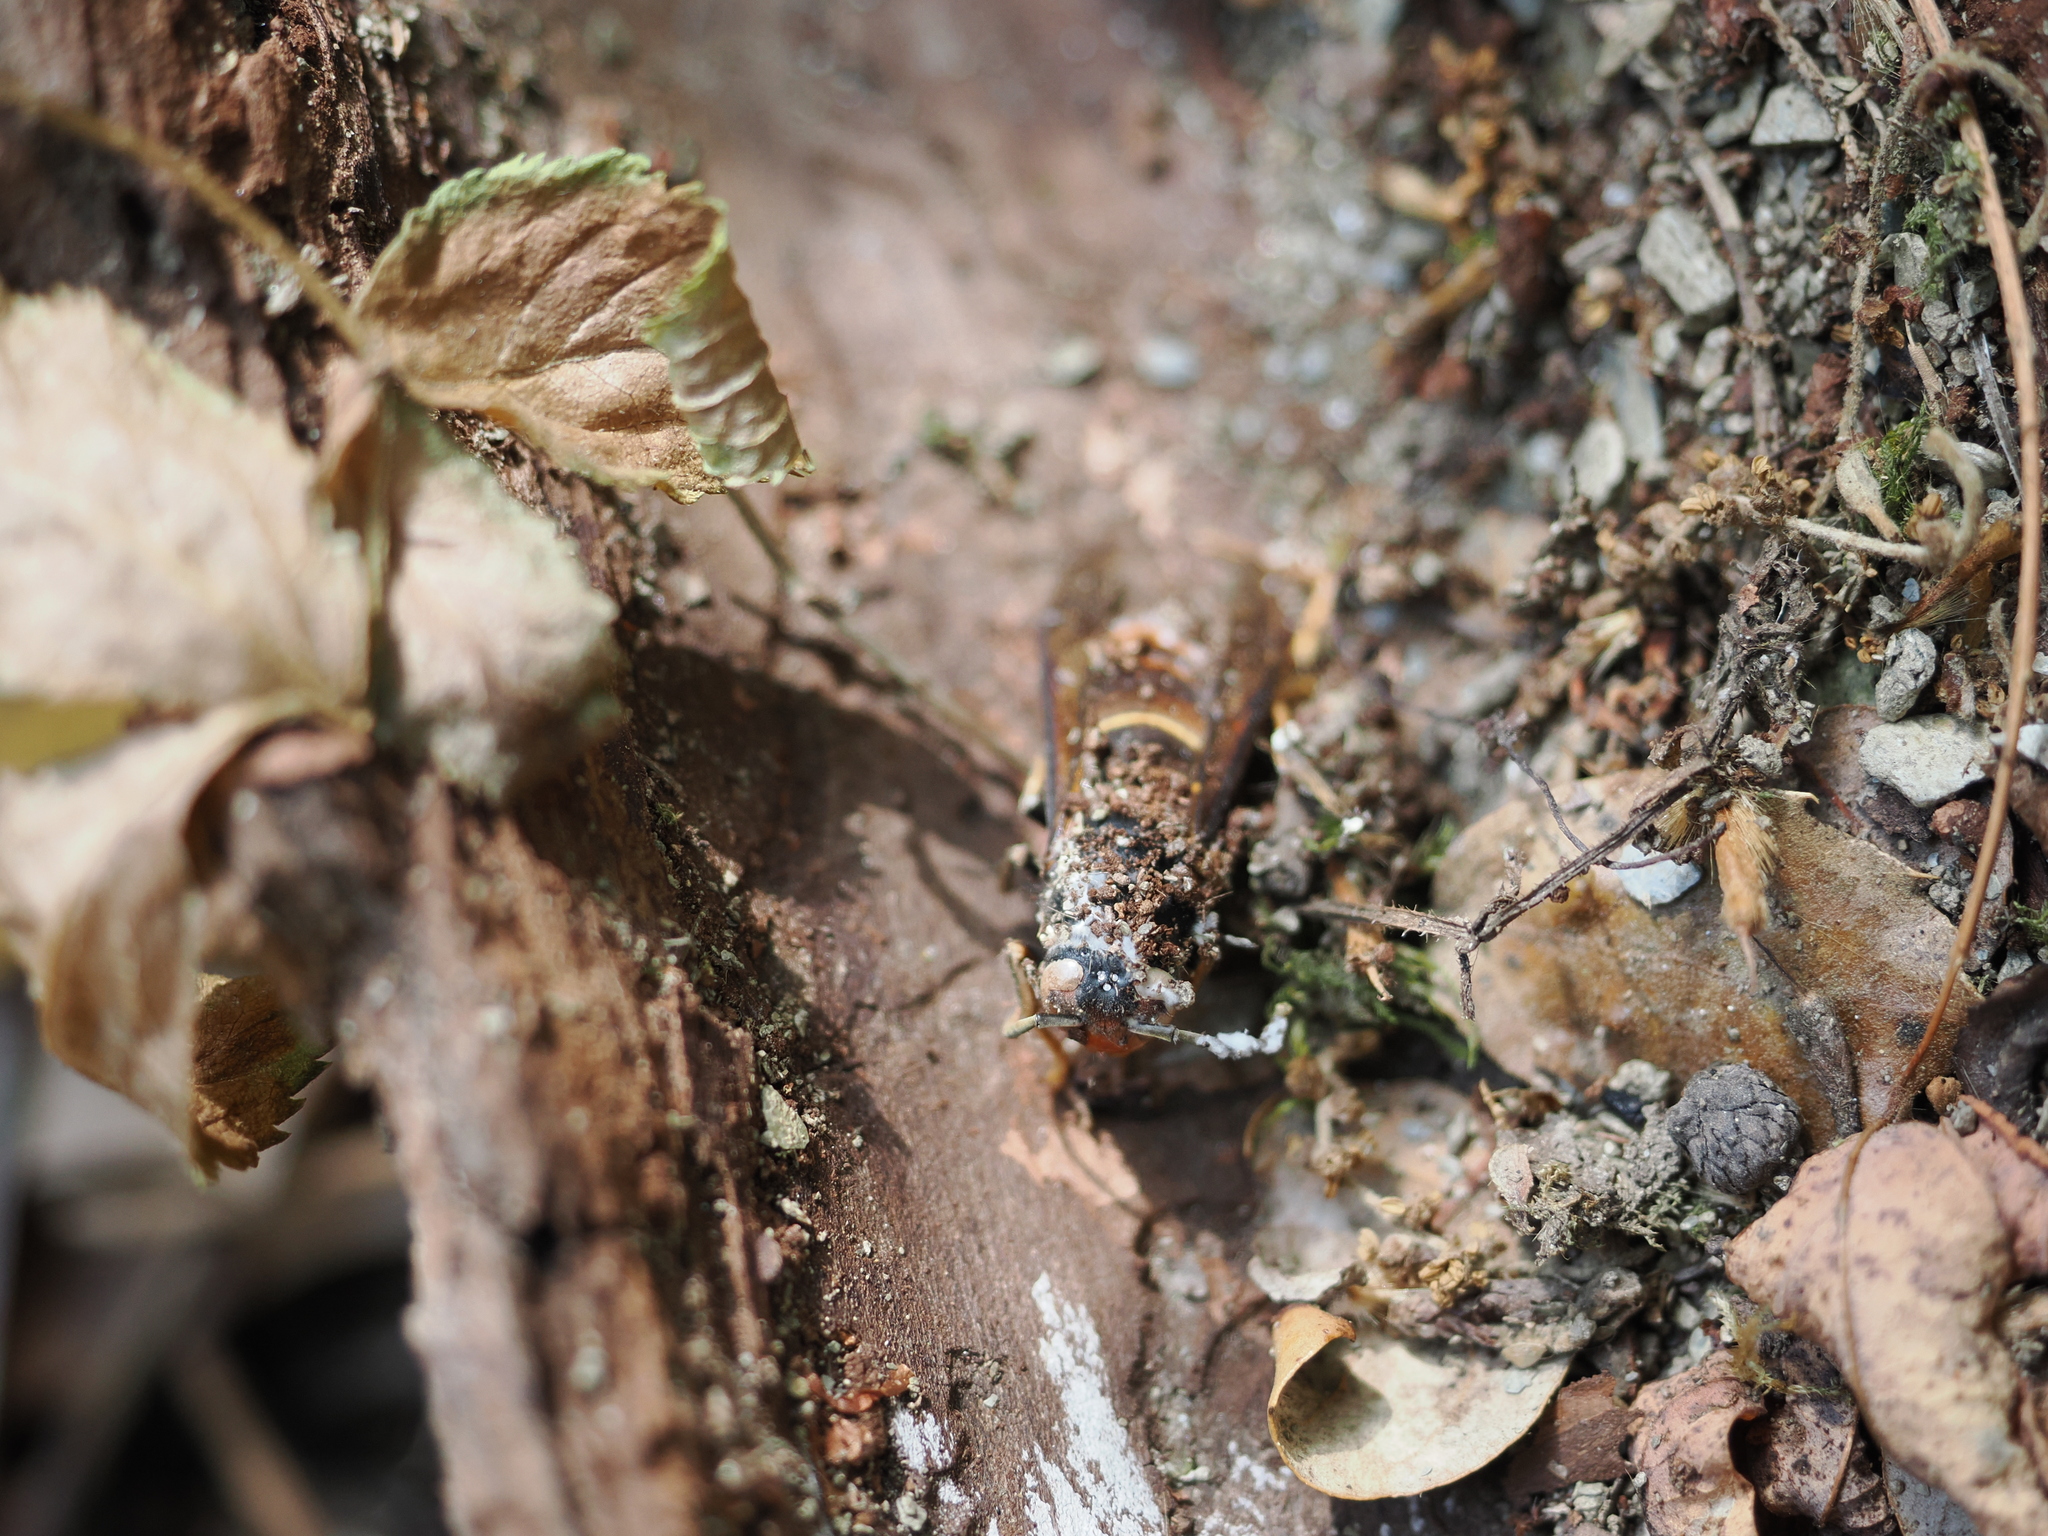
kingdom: Animalia
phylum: Arthropoda
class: Insecta
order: Hymenoptera
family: Vespidae
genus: Vespa
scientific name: Vespa velutina
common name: Asian hornet
